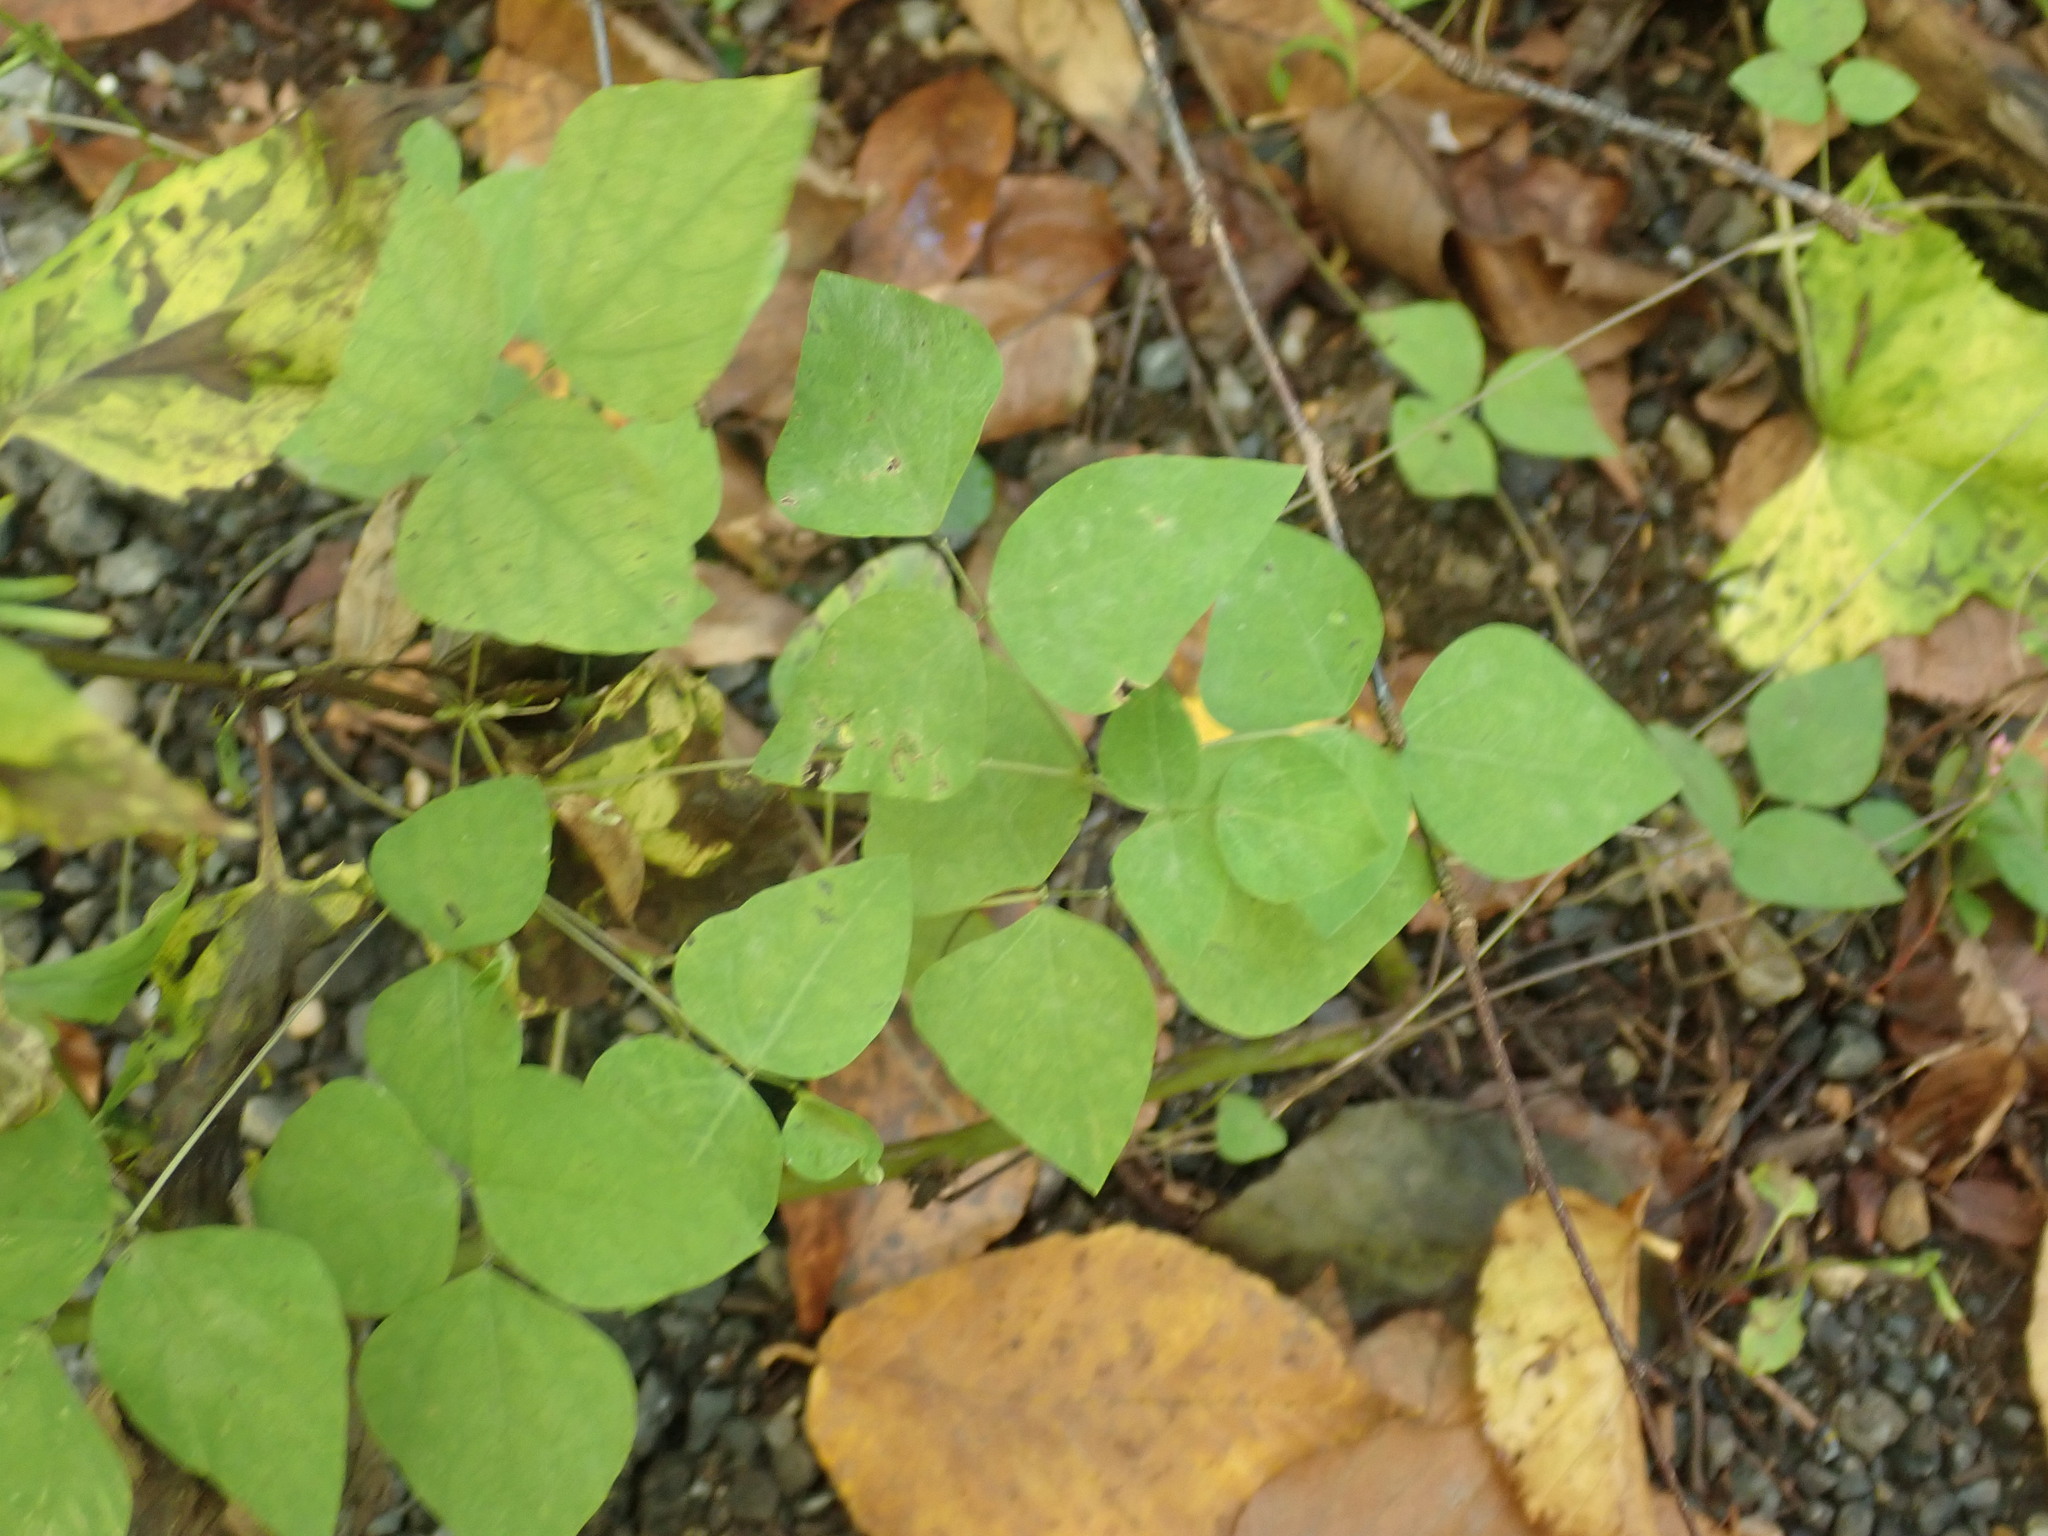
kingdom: Plantae
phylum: Tracheophyta
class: Magnoliopsida
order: Fabales
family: Fabaceae
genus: Amphicarpaea
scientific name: Amphicarpaea bracteata
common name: American hog peanut
